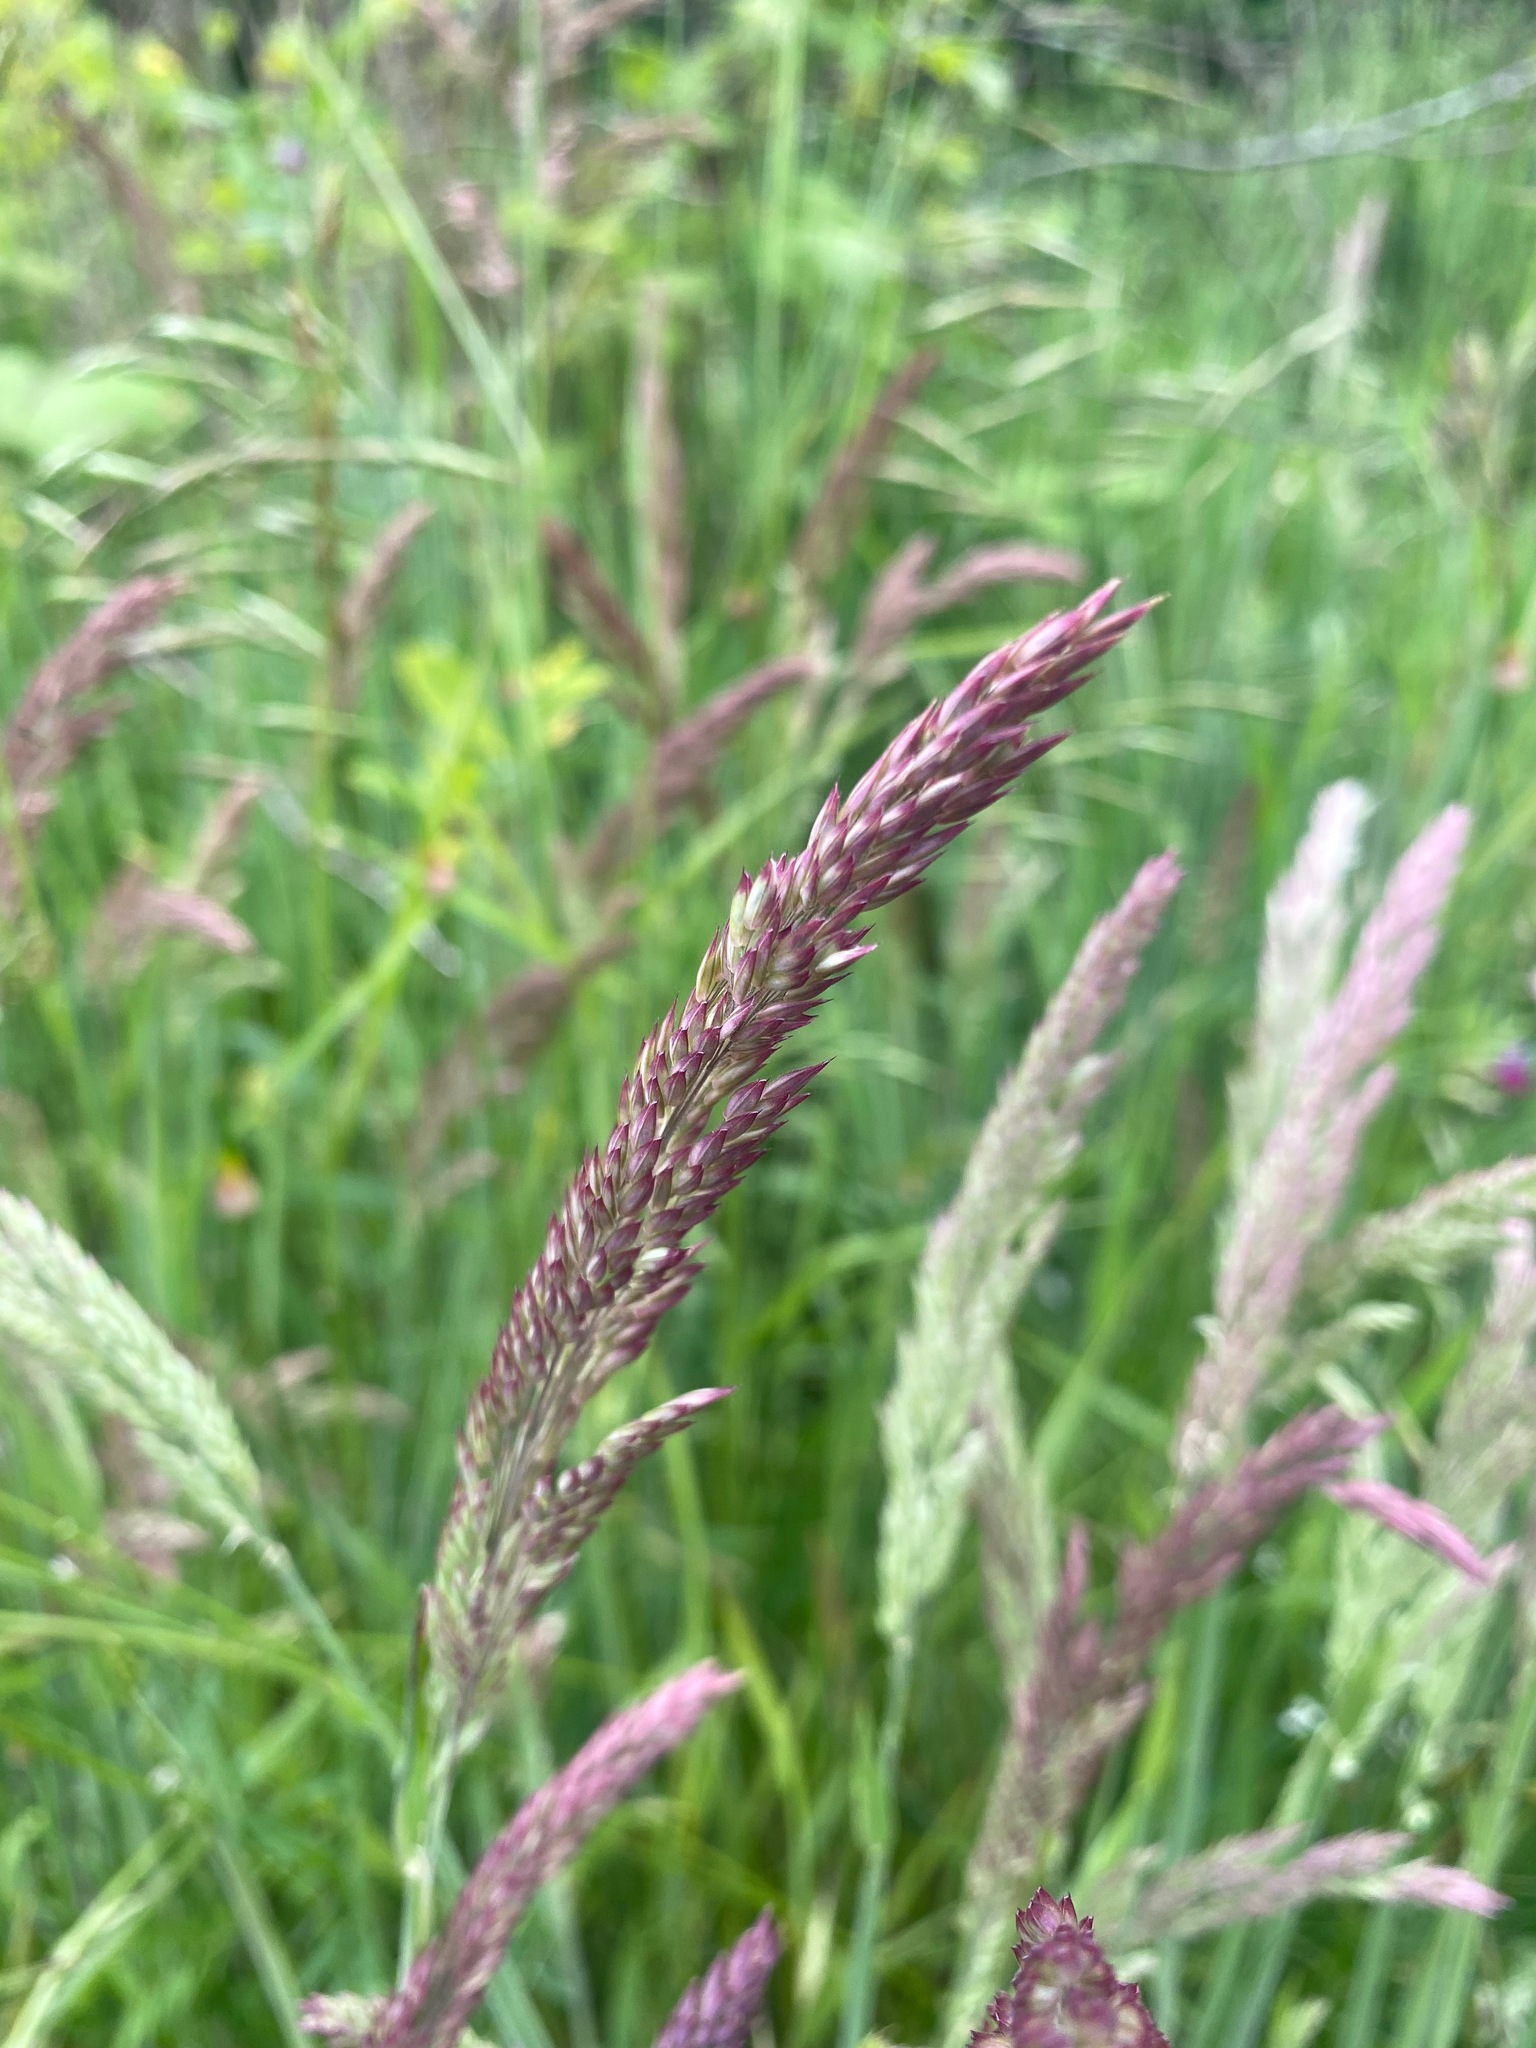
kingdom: Plantae
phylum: Tracheophyta
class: Liliopsida
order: Poales
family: Poaceae
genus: Holcus
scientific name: Holcus lanatus
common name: Yorkshire-fog
